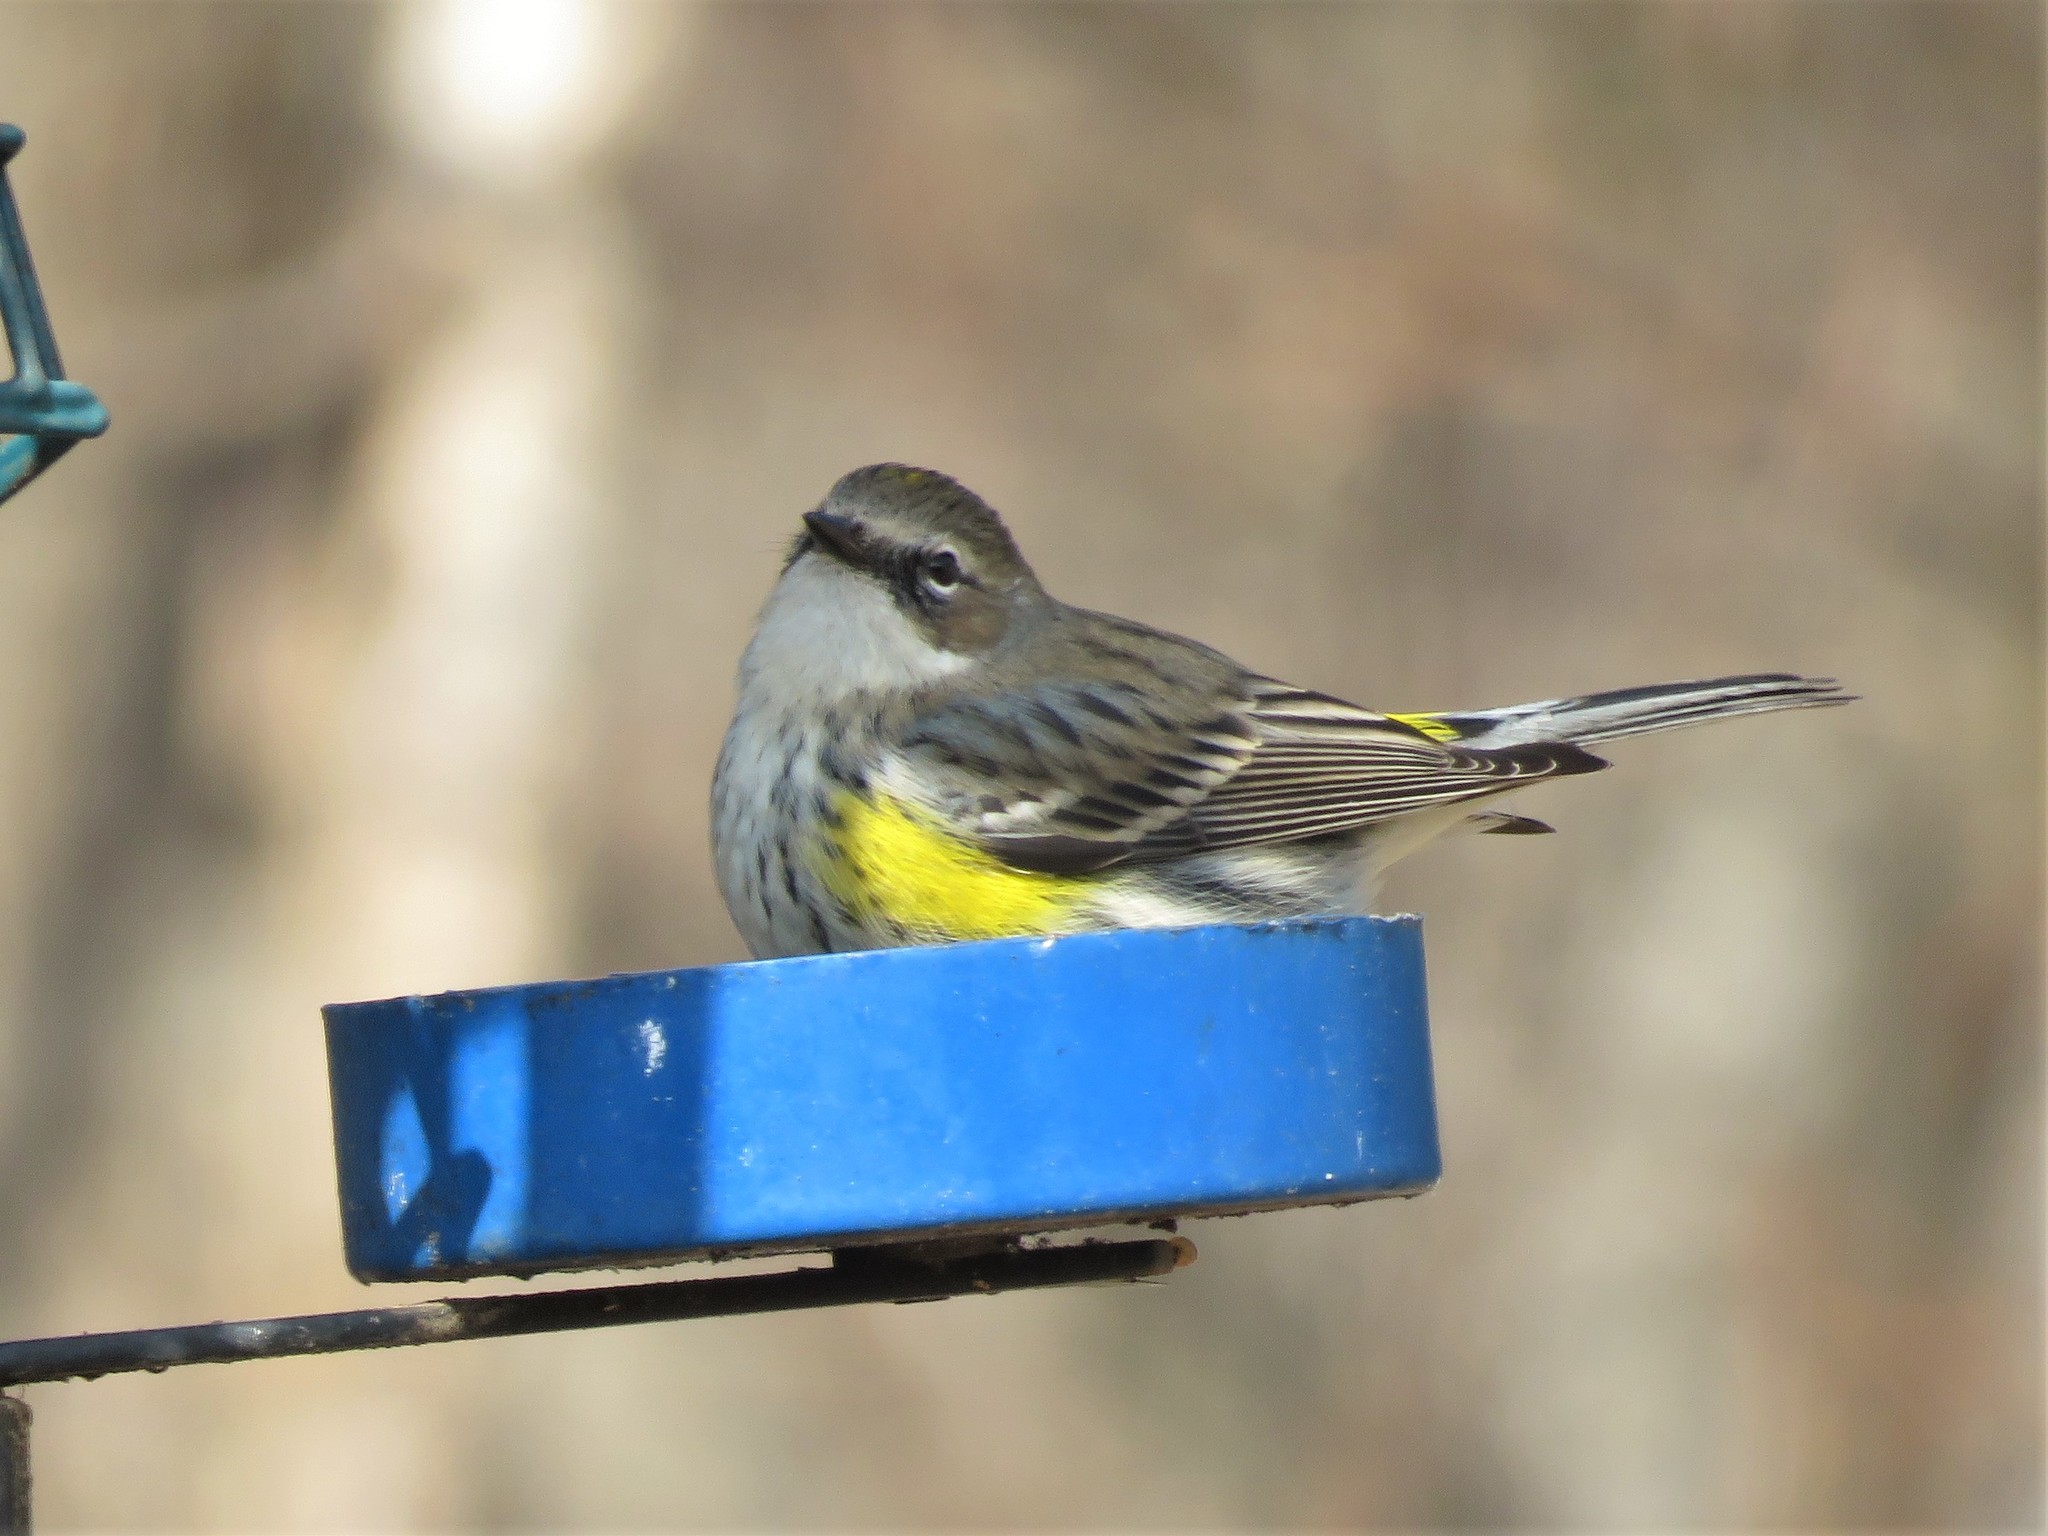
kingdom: Animalia
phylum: Chordata
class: Aves
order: Passeriformes
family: Parulidae
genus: Setophaga
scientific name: Setophaga coronata
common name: Myrtle warbler
